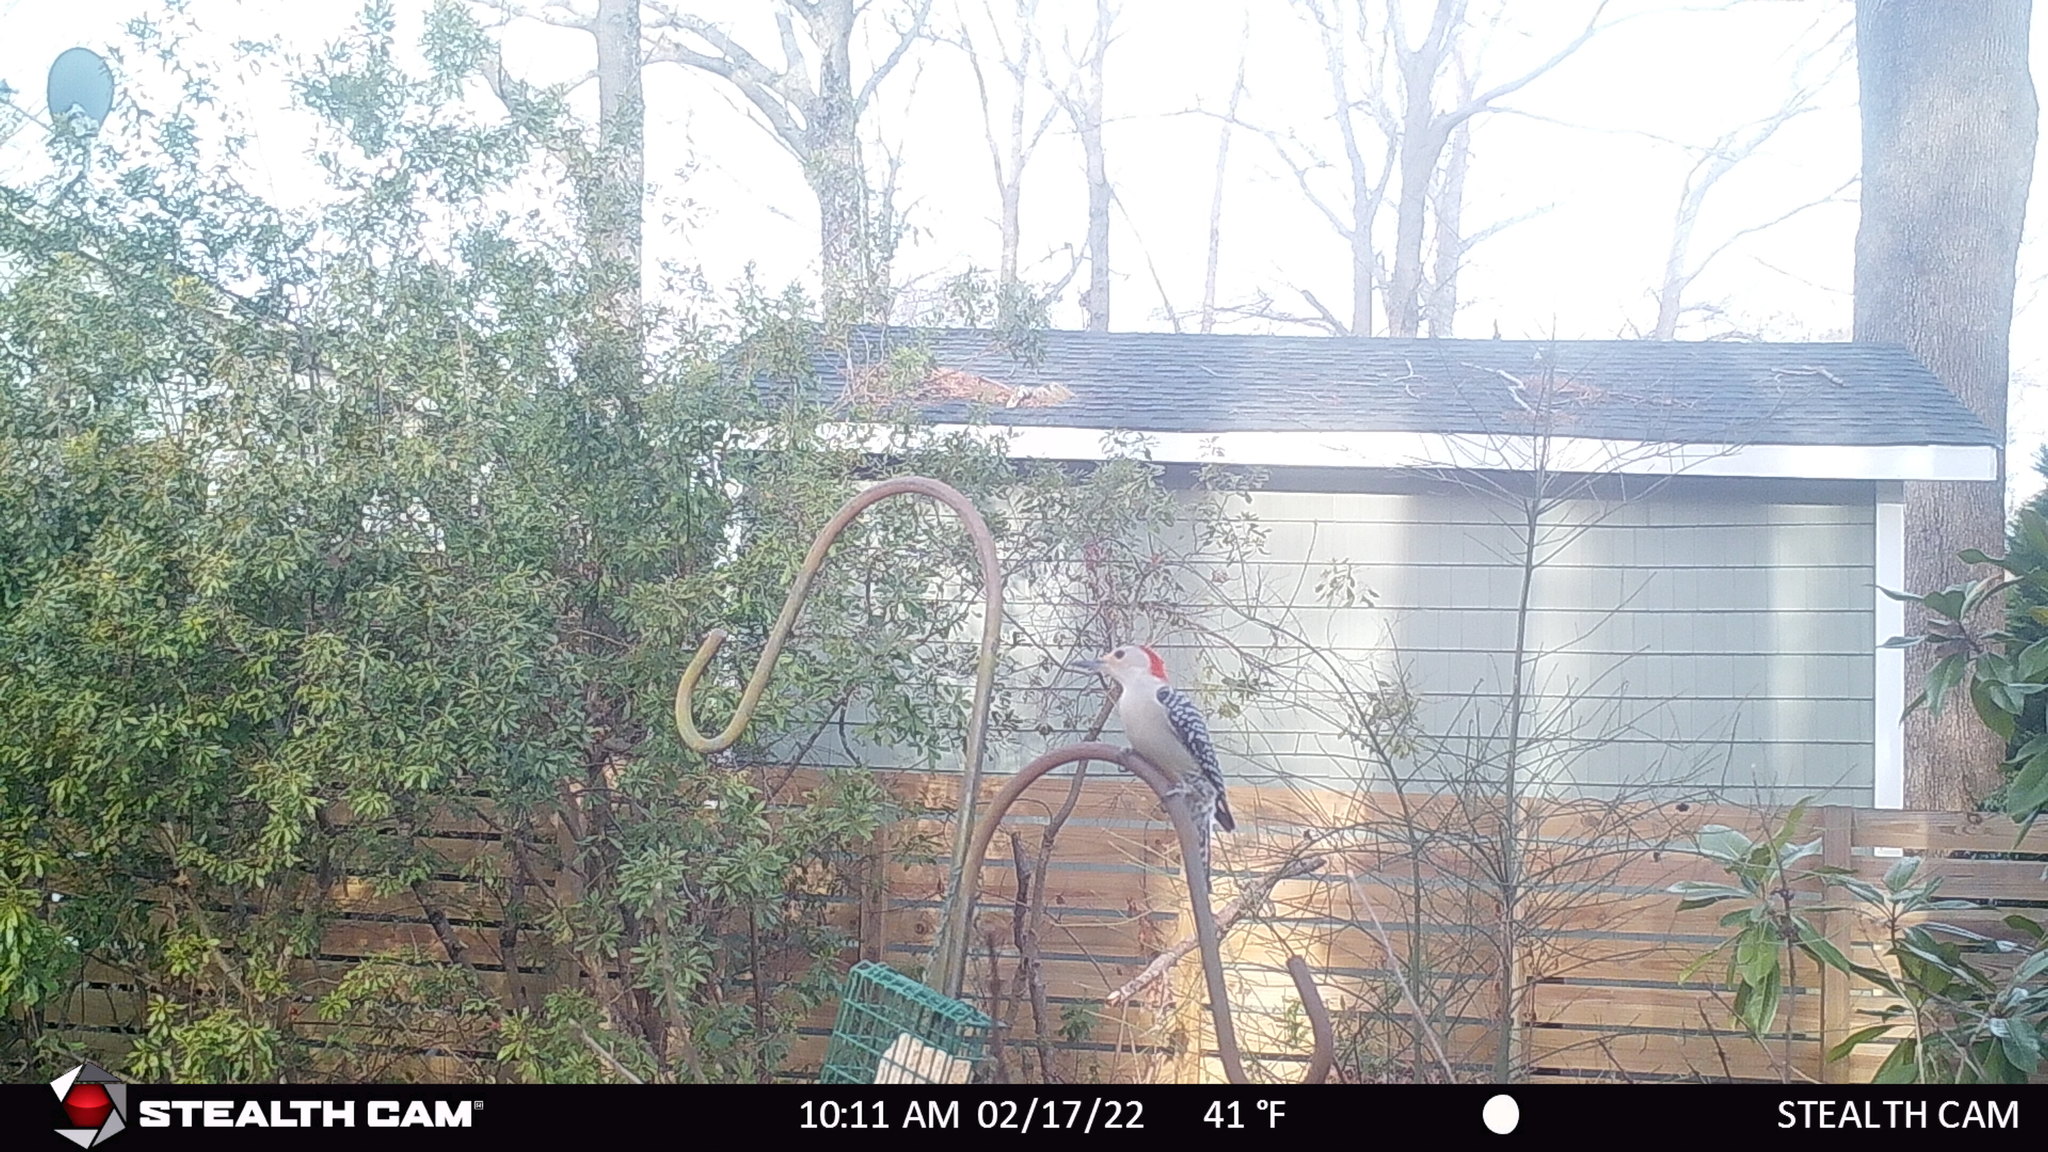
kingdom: Animalia
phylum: Chordata
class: Aves
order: Piciformes
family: Picidae
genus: Melanerpes
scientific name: Melanerpes carolinus
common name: Red-bellied woodpecker
